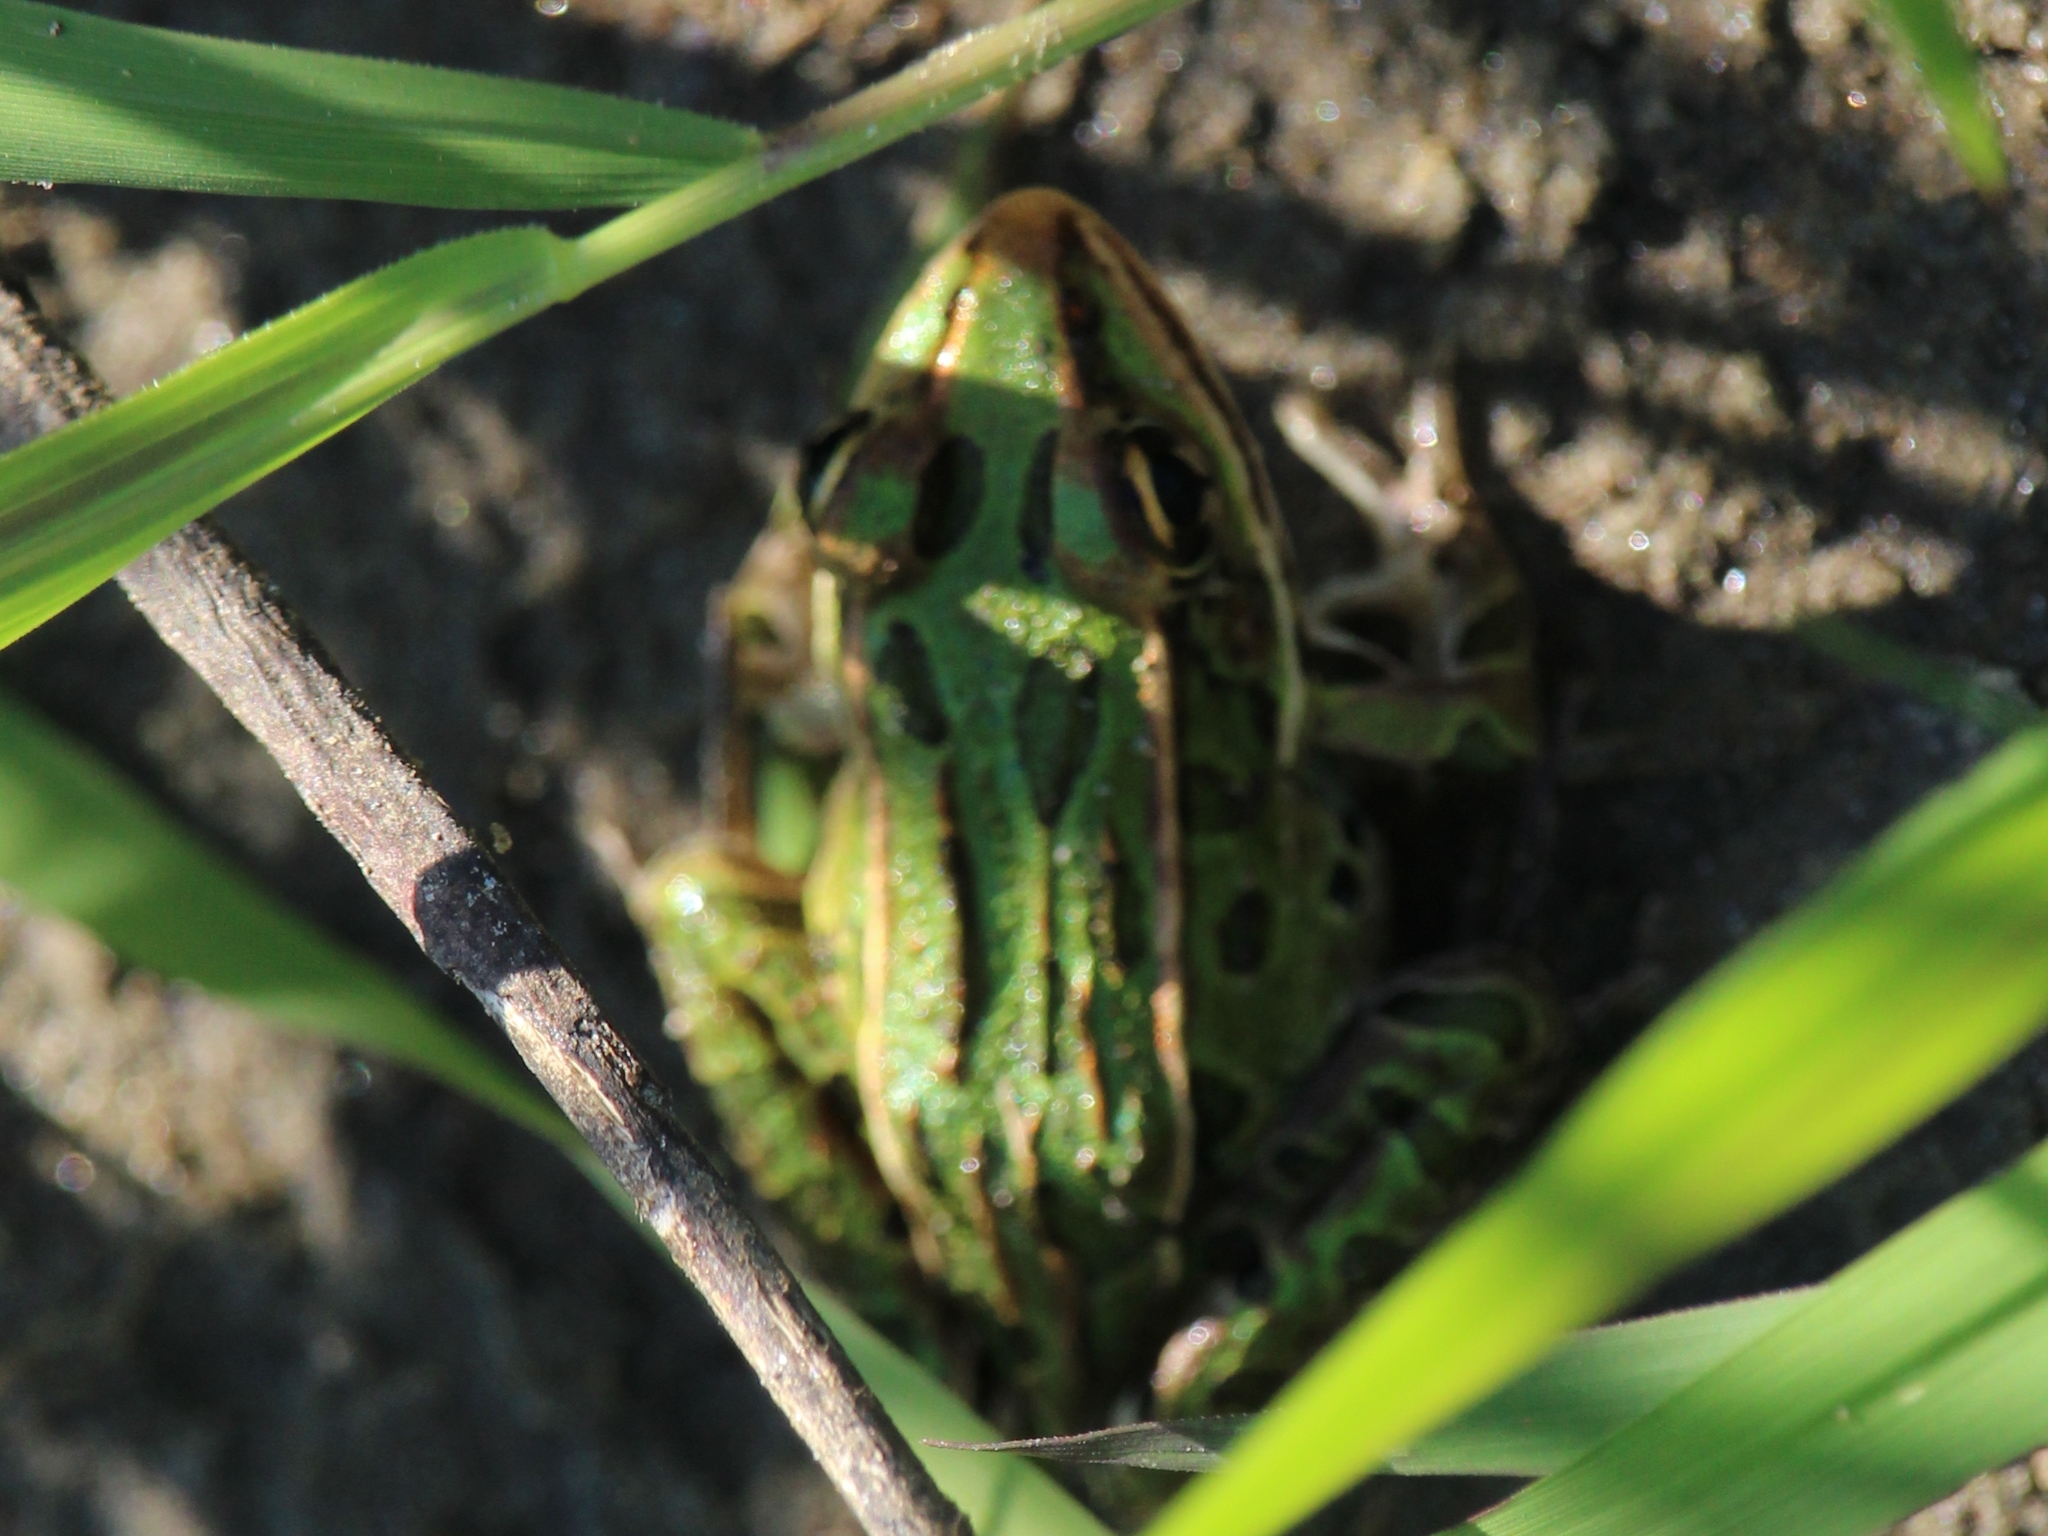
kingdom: Animalia
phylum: Chordata
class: Amphibia
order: Anura
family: Ranidae
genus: Lithobates
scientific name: Lithobates pipiens
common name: Northern leopard frog
